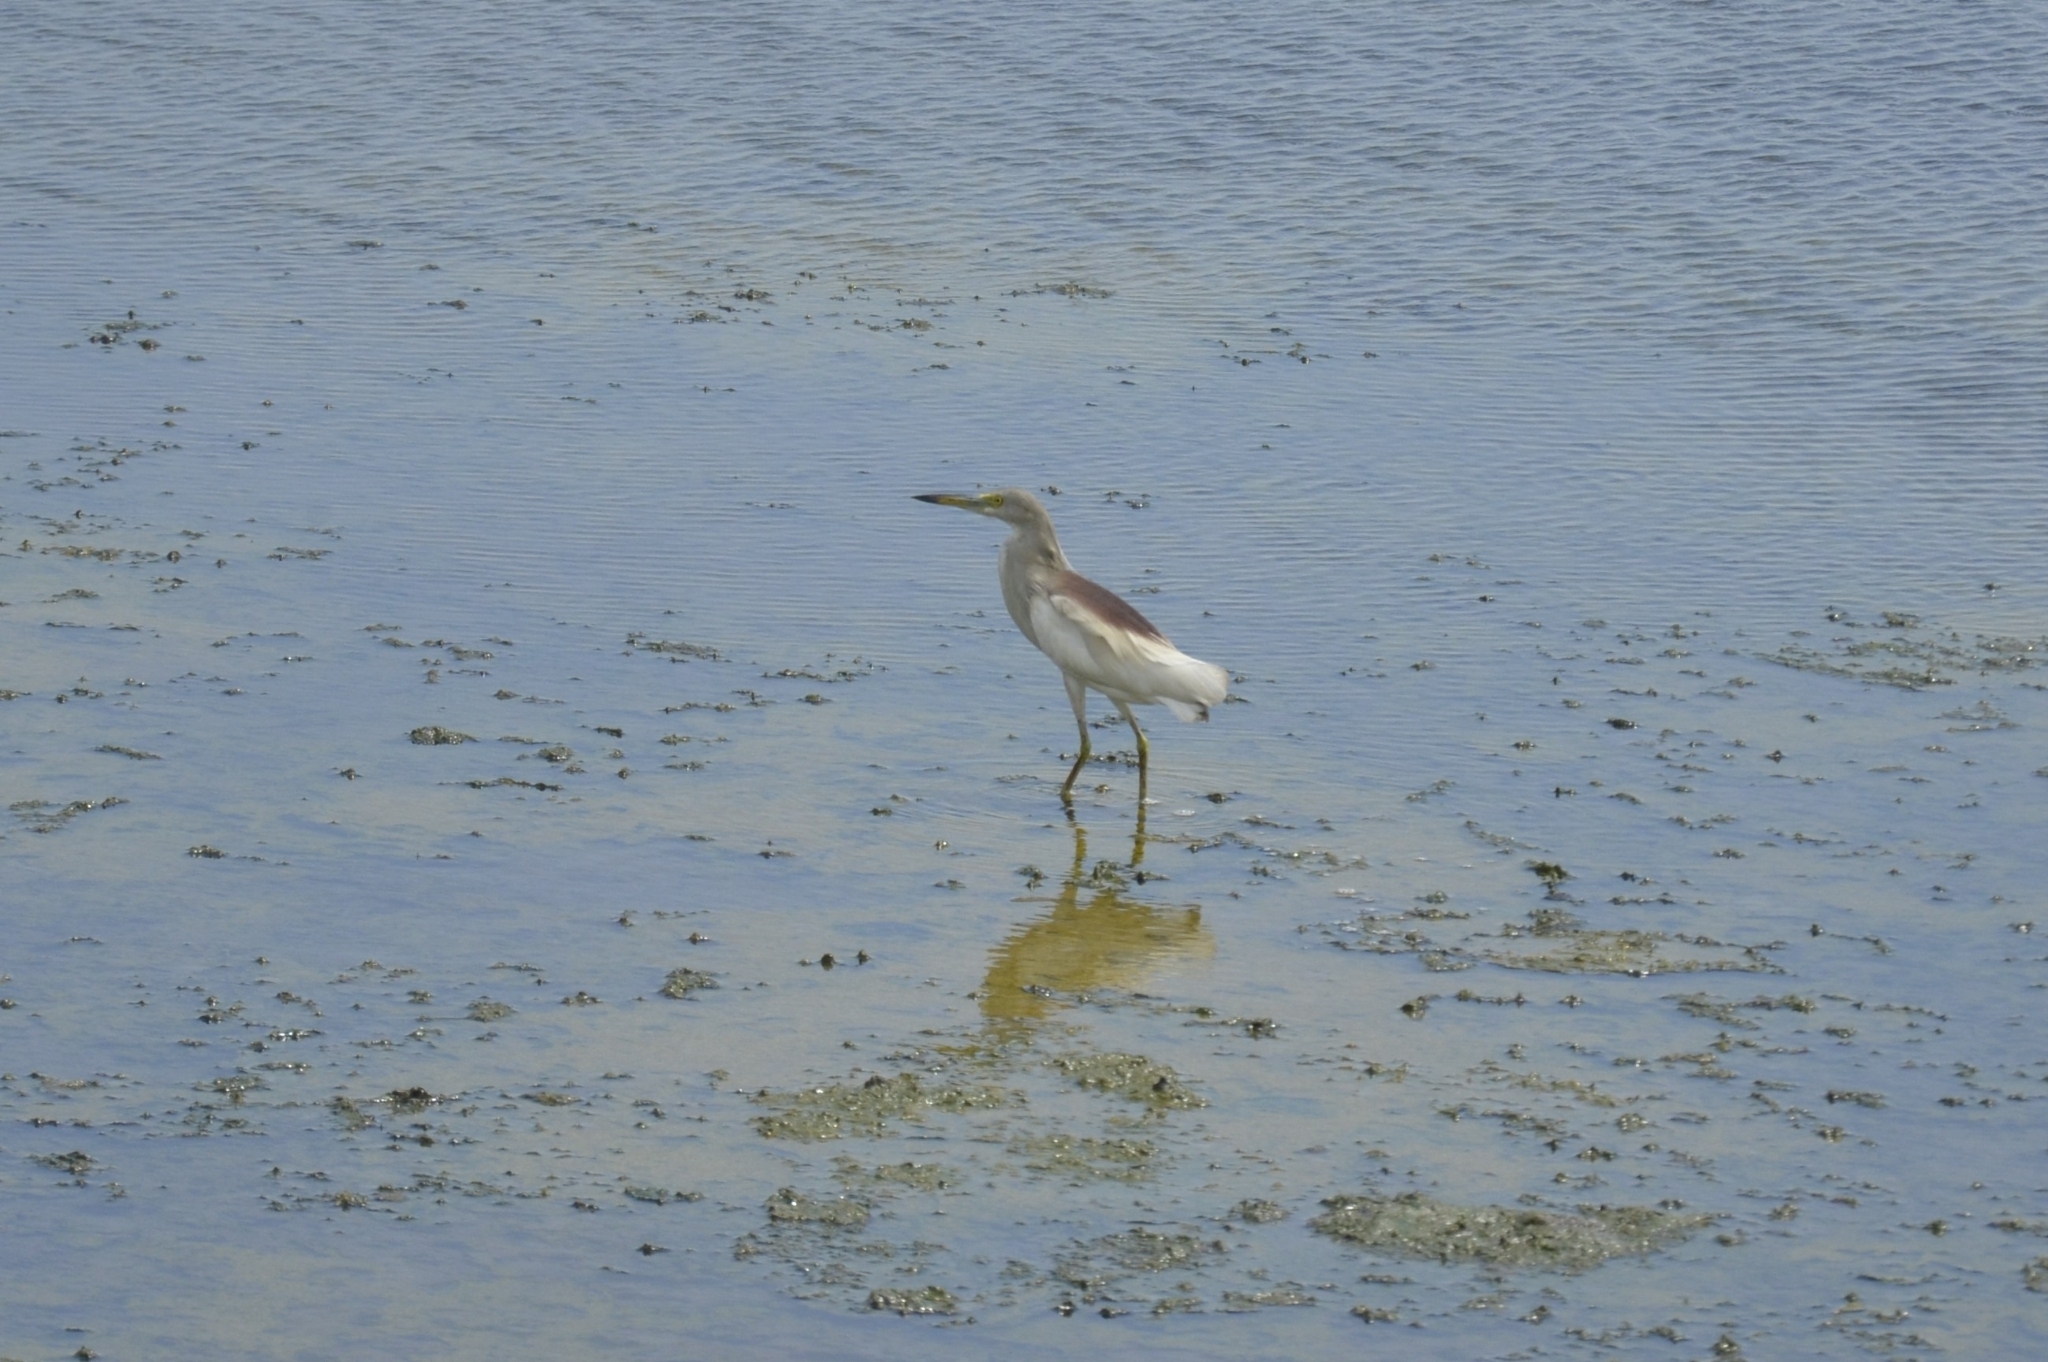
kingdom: Animalia
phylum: Chordata
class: Aves
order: Pelecaniformes
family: Ardeidae
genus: Ardeola
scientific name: Ardeola grayii
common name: Indian pond heron
